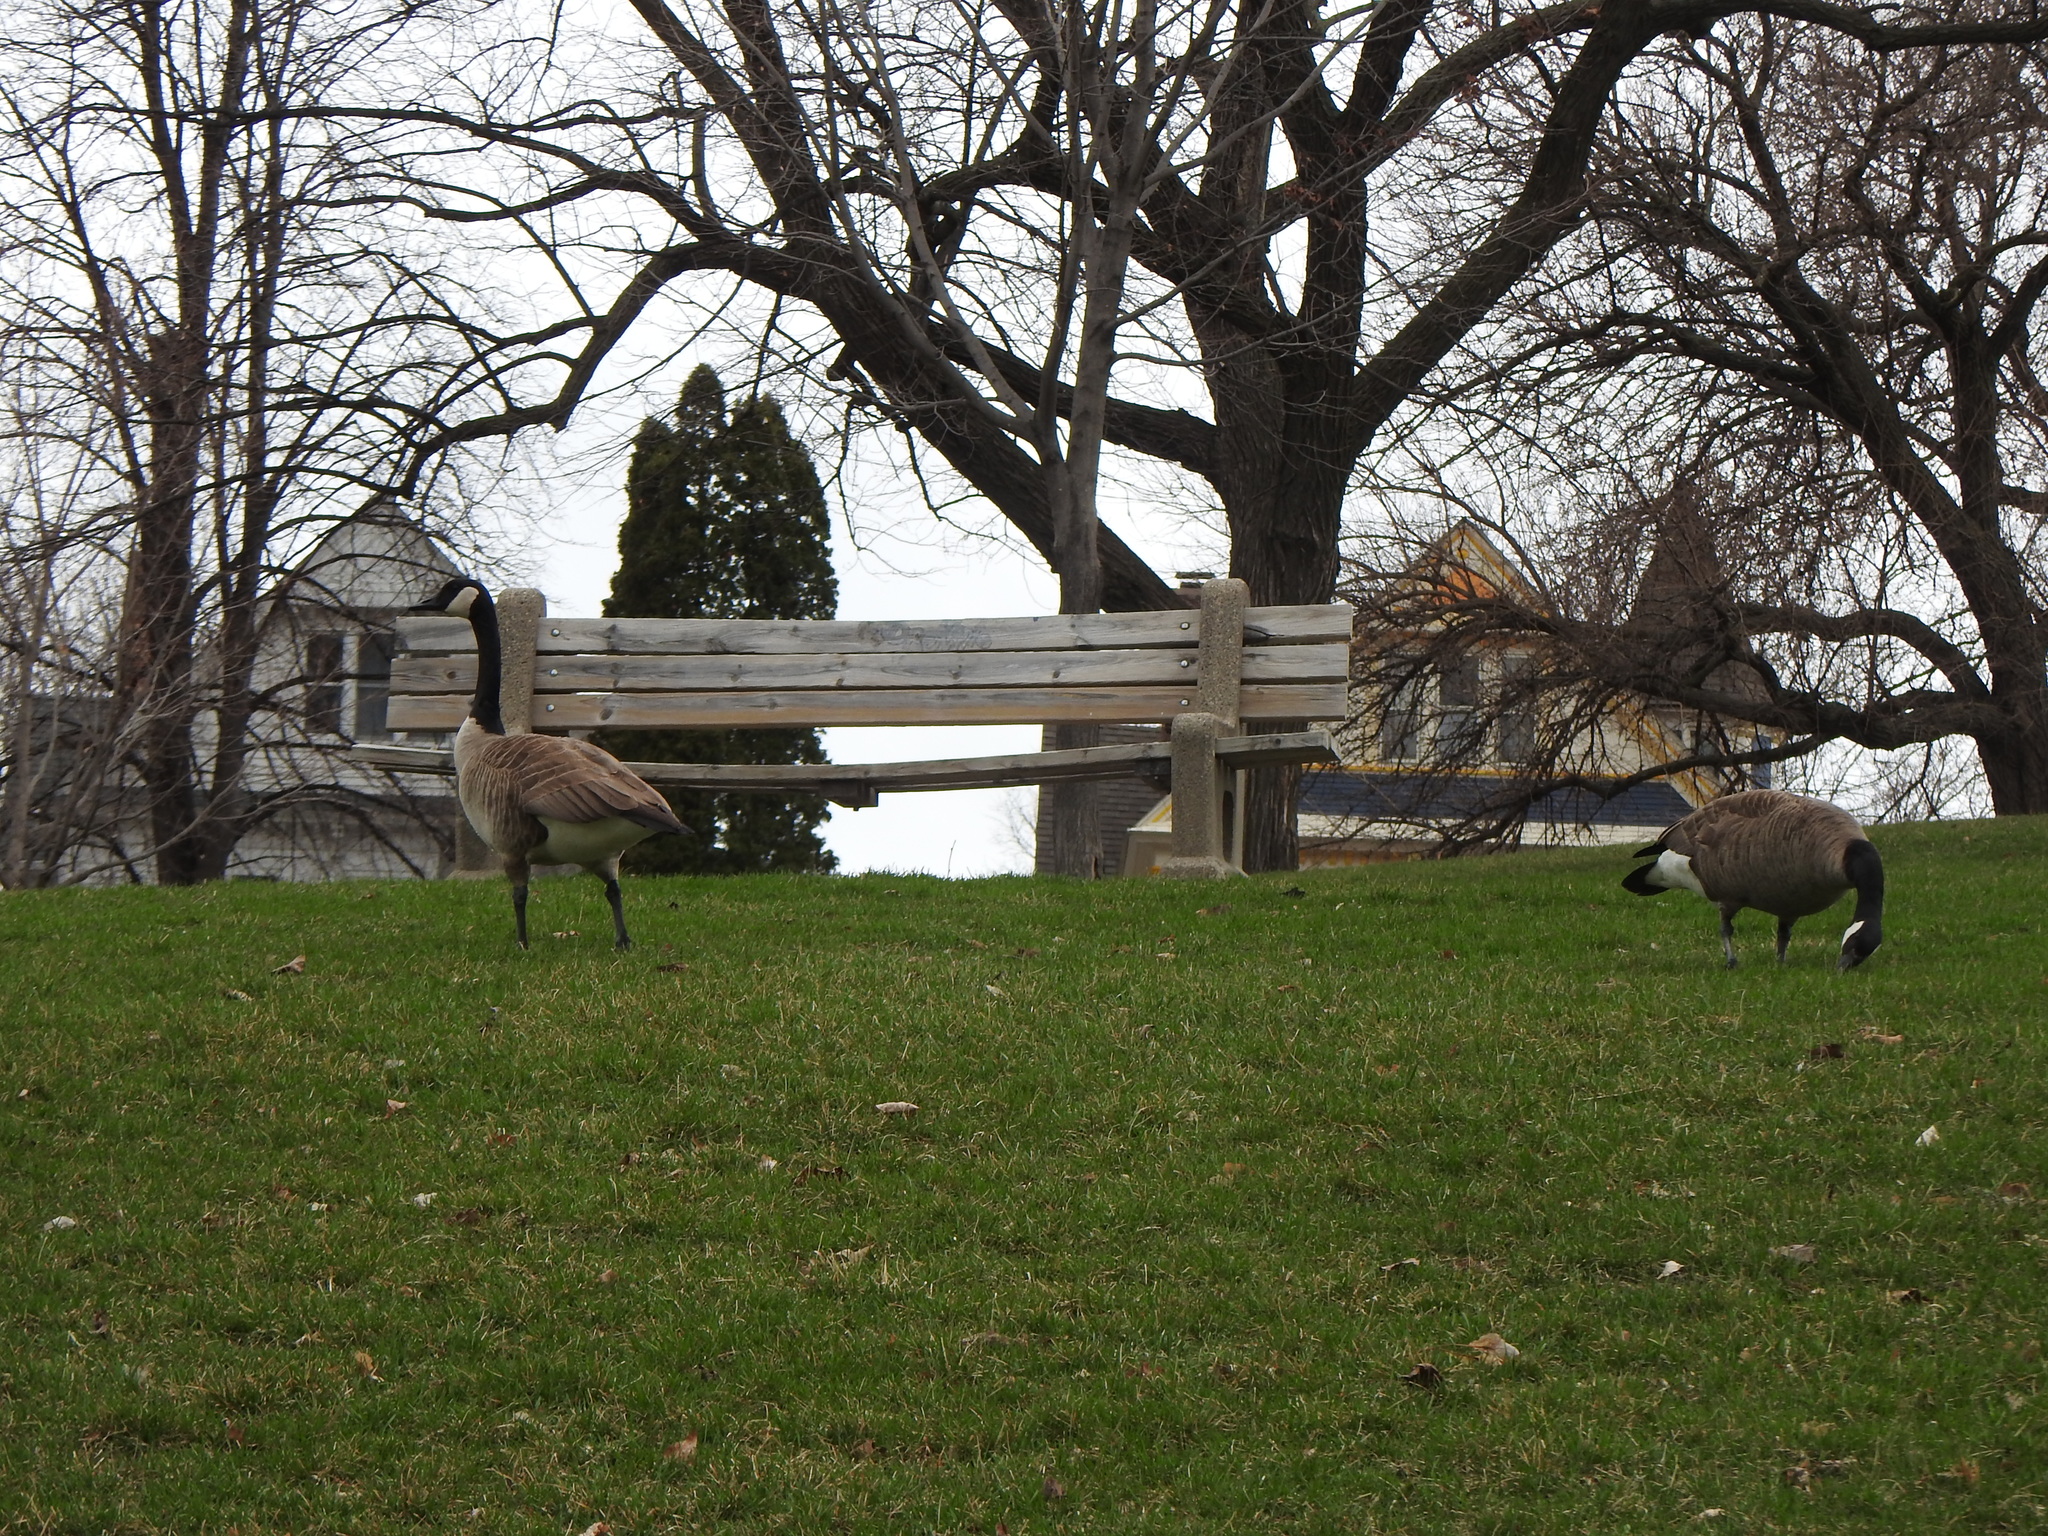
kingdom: Animalia
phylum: Chordata
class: Aves
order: Anseriformes
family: Anatidae
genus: Branta
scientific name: Branta canadensis
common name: Canada goose
